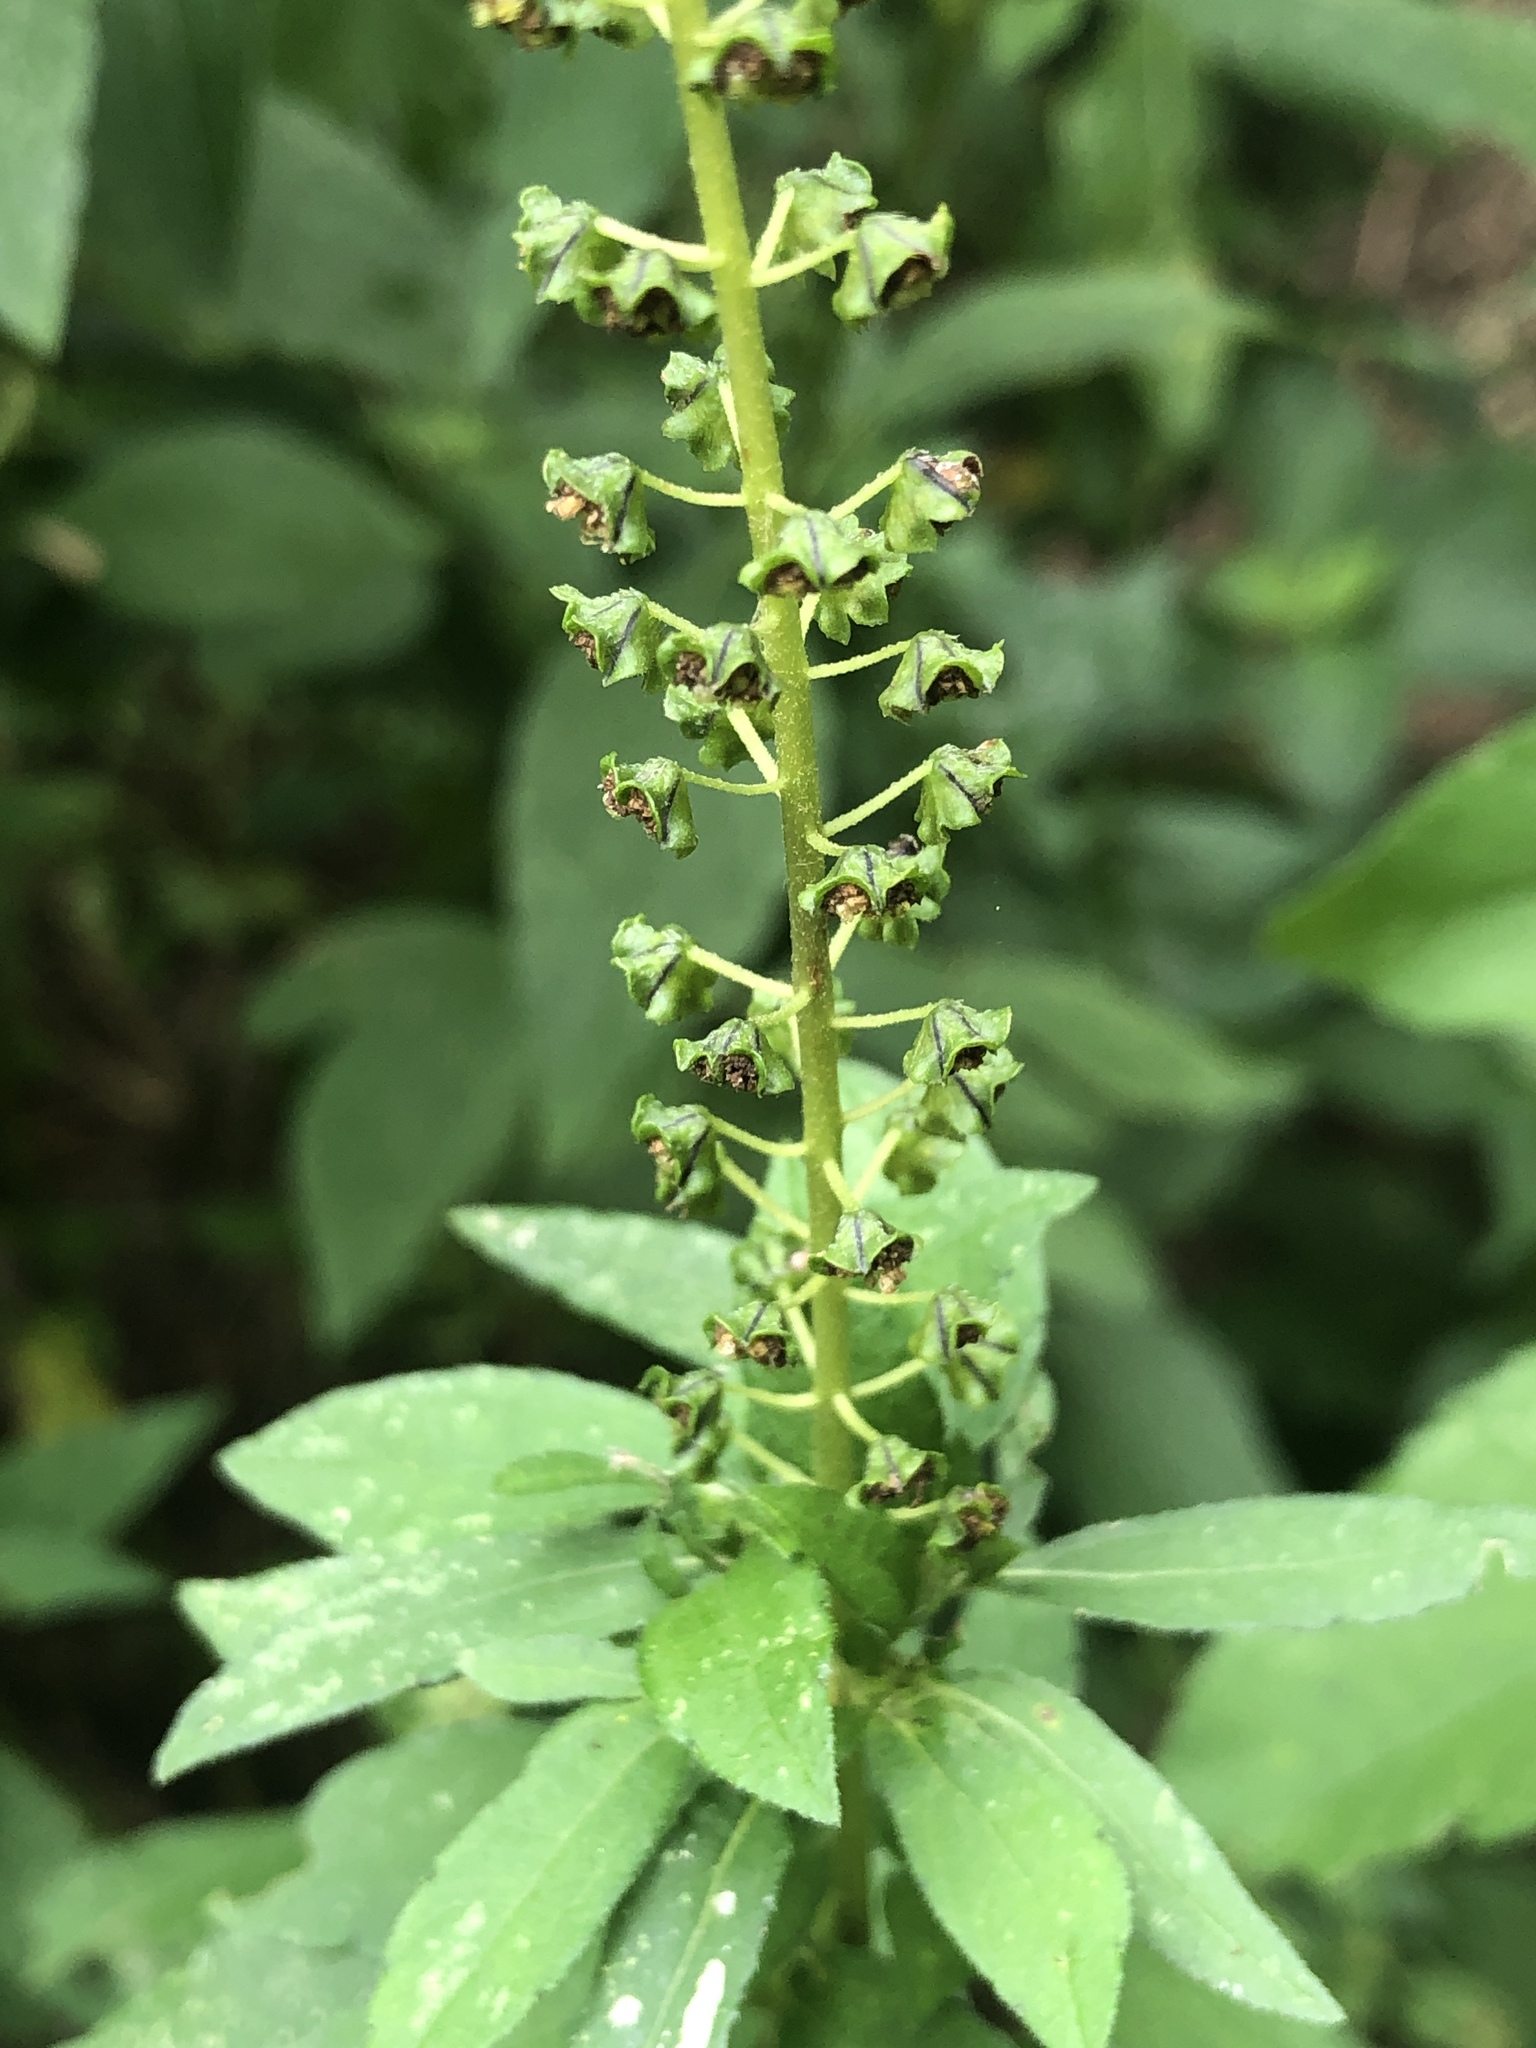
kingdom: Plantae
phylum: Tracheophyta
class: Magnoliopsida
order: Asterales
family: Asteraceae
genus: Ambrosia
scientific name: Ambrosia trifida
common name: Giant ragweed
